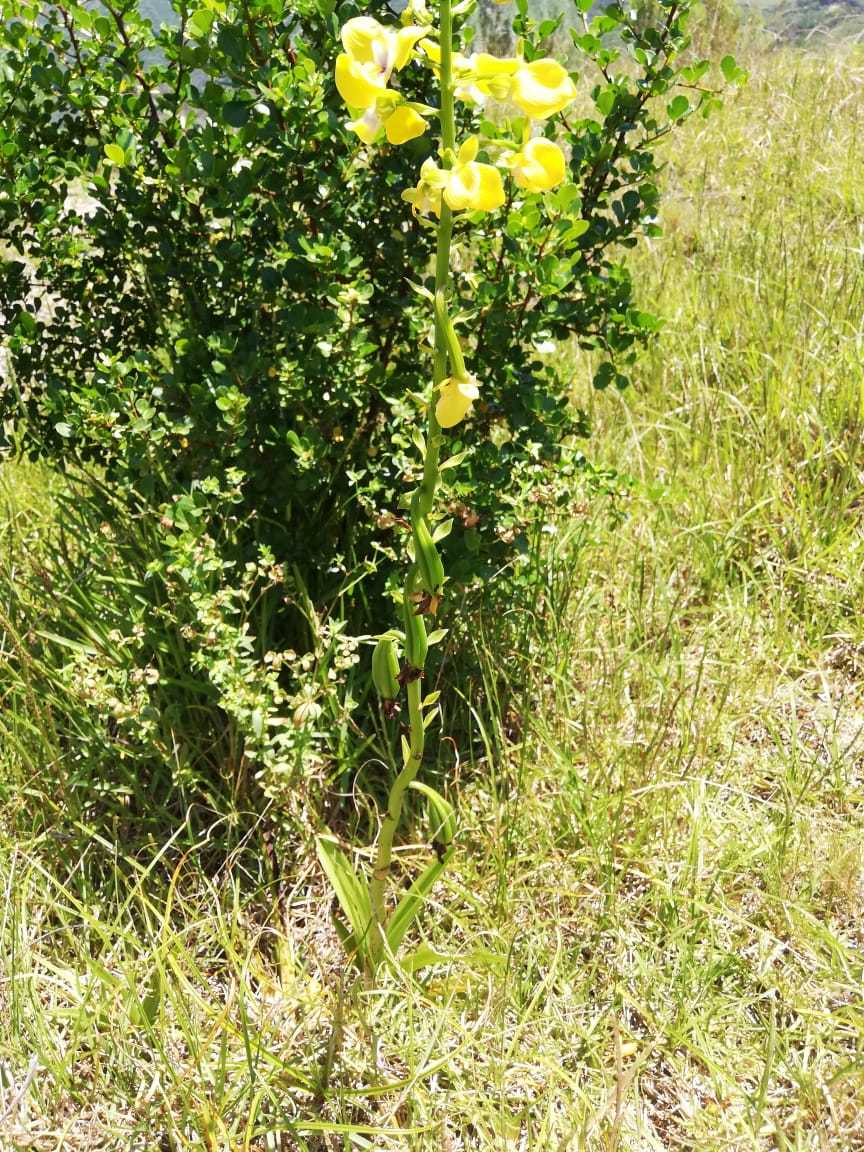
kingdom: Plantae
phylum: Tracheophyta
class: Liliopsida
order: Asparagales
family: Orchidaceae
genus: Eulophia
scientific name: Eulophia speciosa
